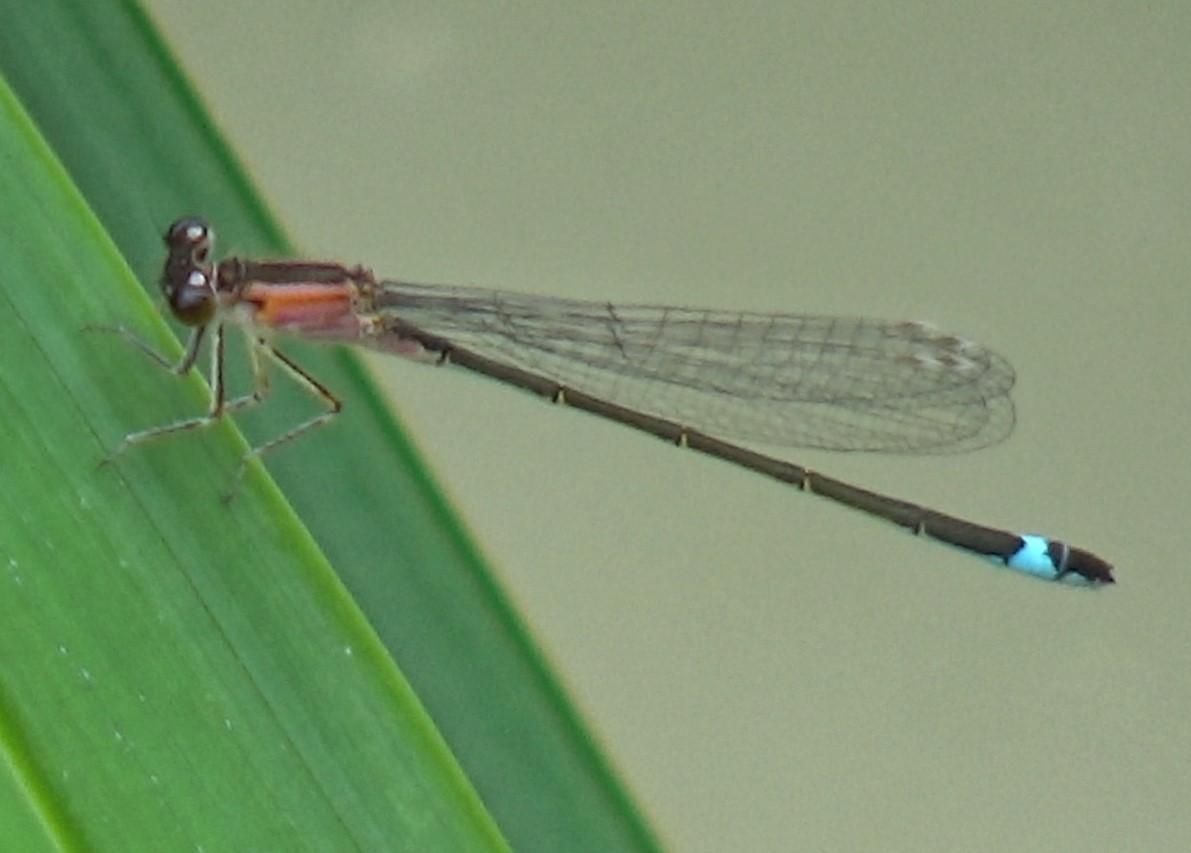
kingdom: Animalia
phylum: Arthropoda
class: Insecta
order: Odonata
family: Coenagrionidae
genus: Ischnura
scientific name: Ischnura elegans
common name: Blue-tailed damselfly
